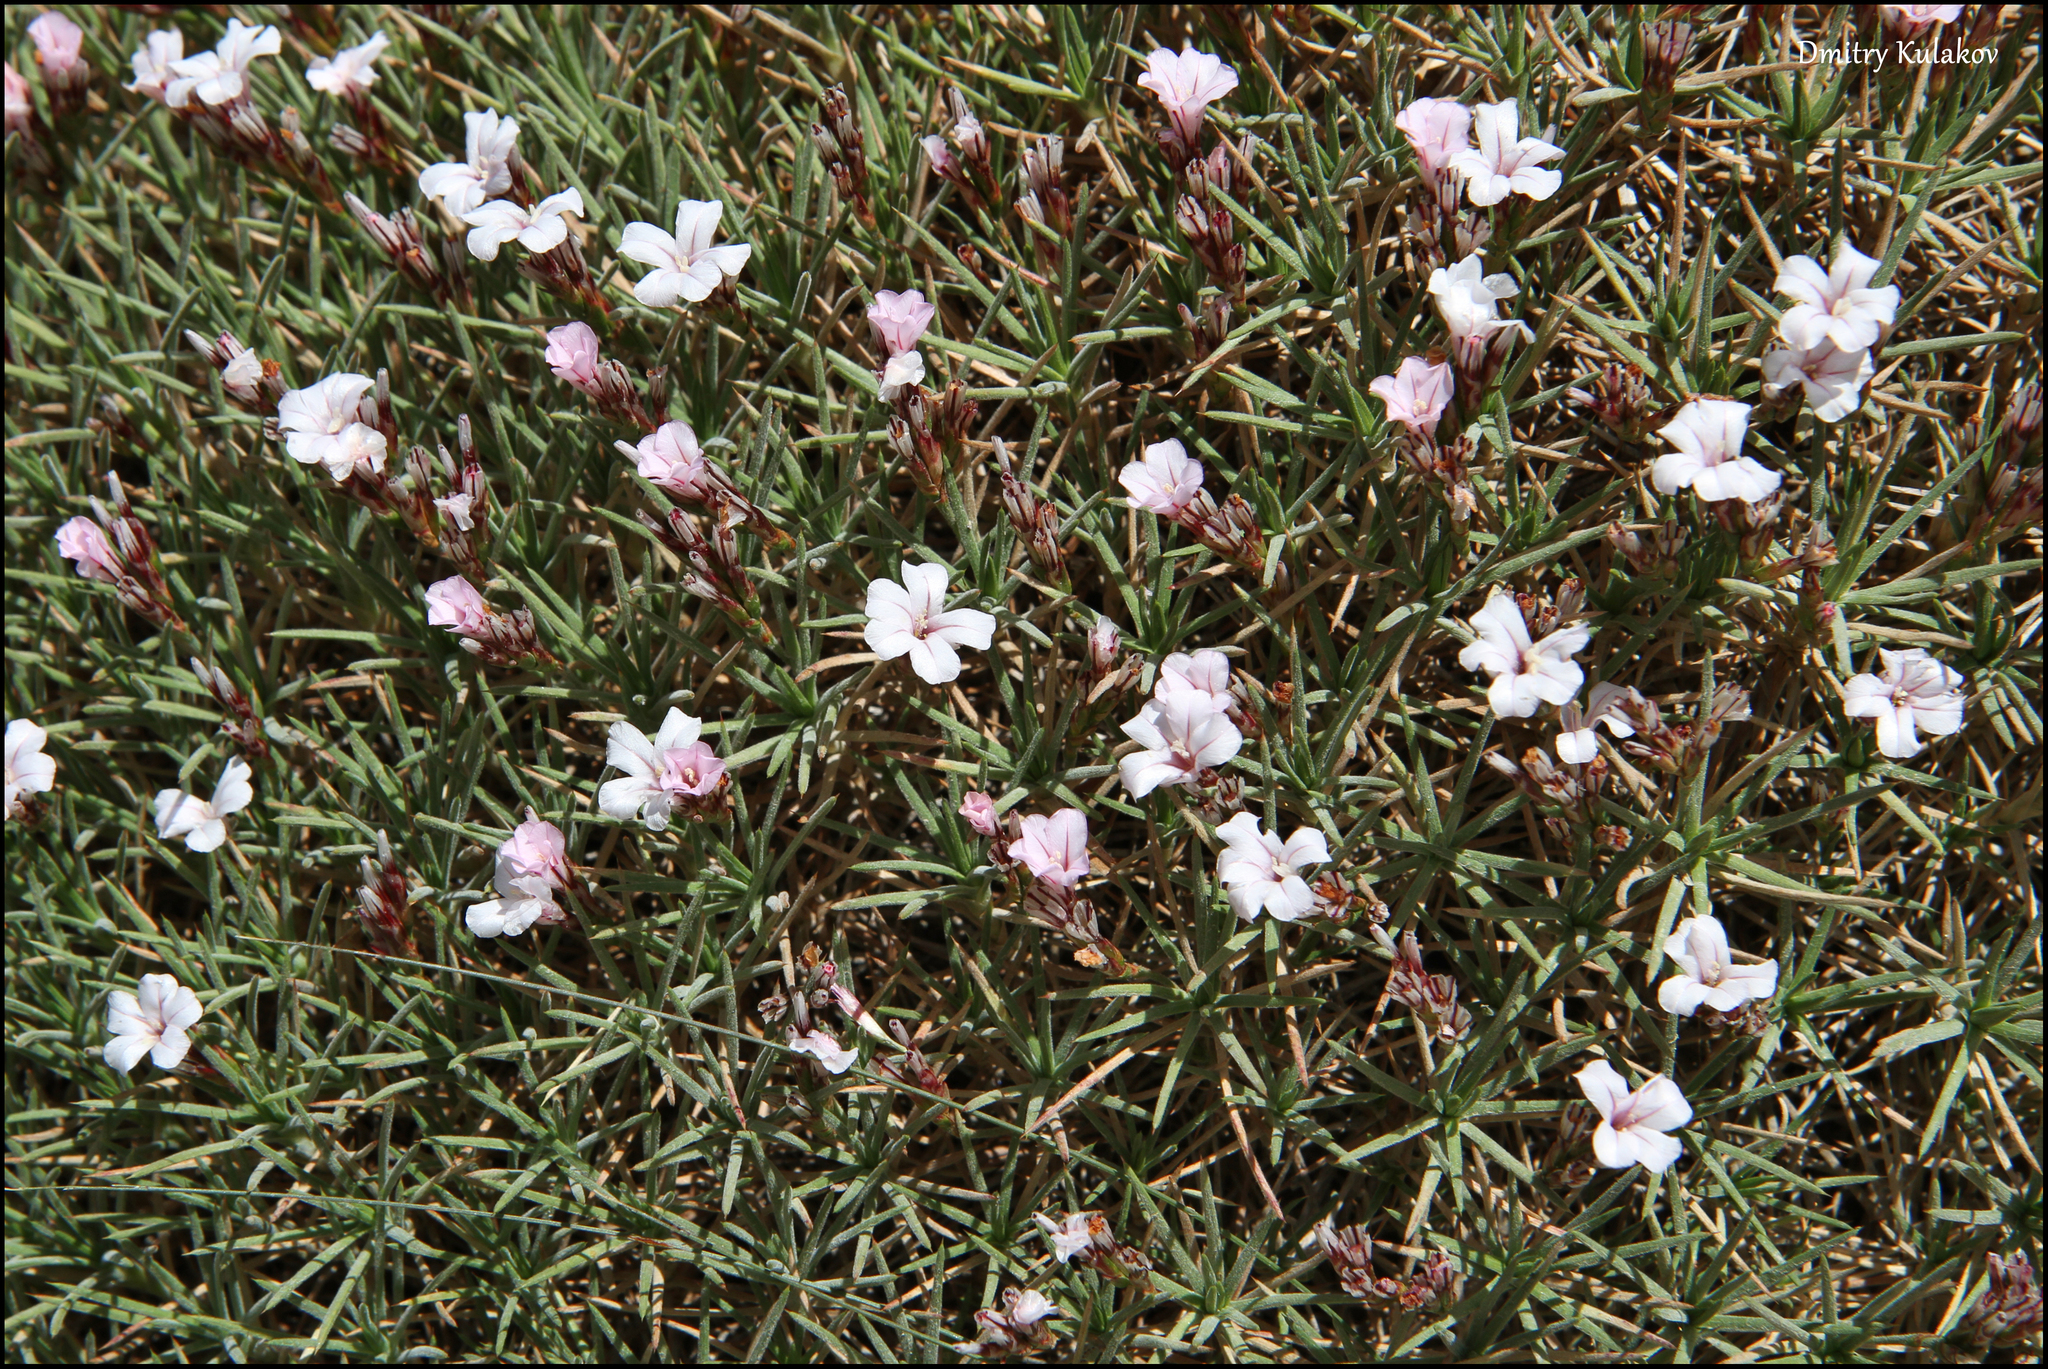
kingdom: Plantae
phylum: Tracheophyta
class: Magnoliopsida
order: Caryophyllales
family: Plumbaginaceae
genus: Acantholimon
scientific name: Acantholimon velutinum
